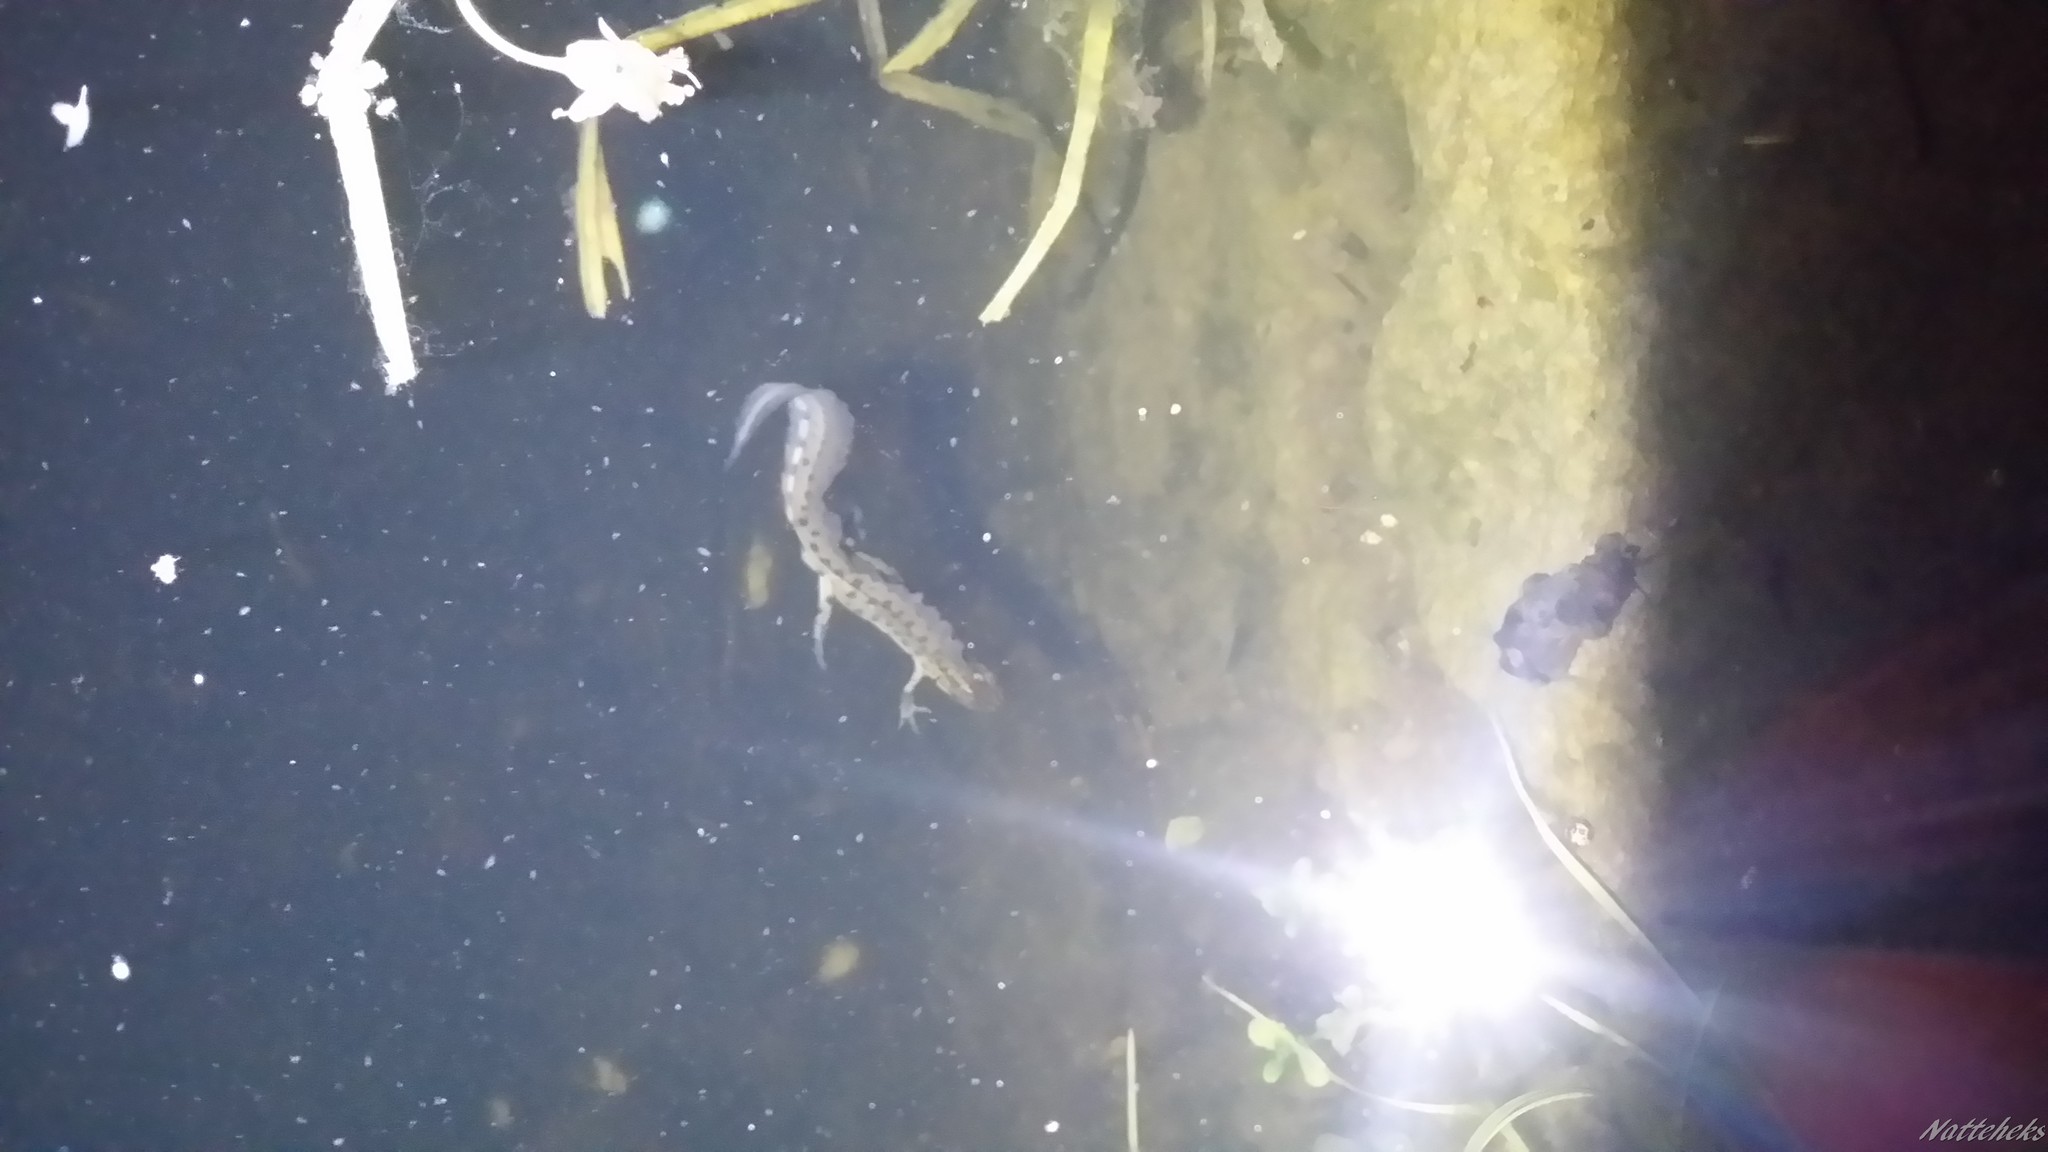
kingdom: Animalia
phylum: Chordata
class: Amphibia
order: Caudata
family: Salamandridae
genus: Lissotriton
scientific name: Lissotriton vulgaris
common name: Smooth newt
